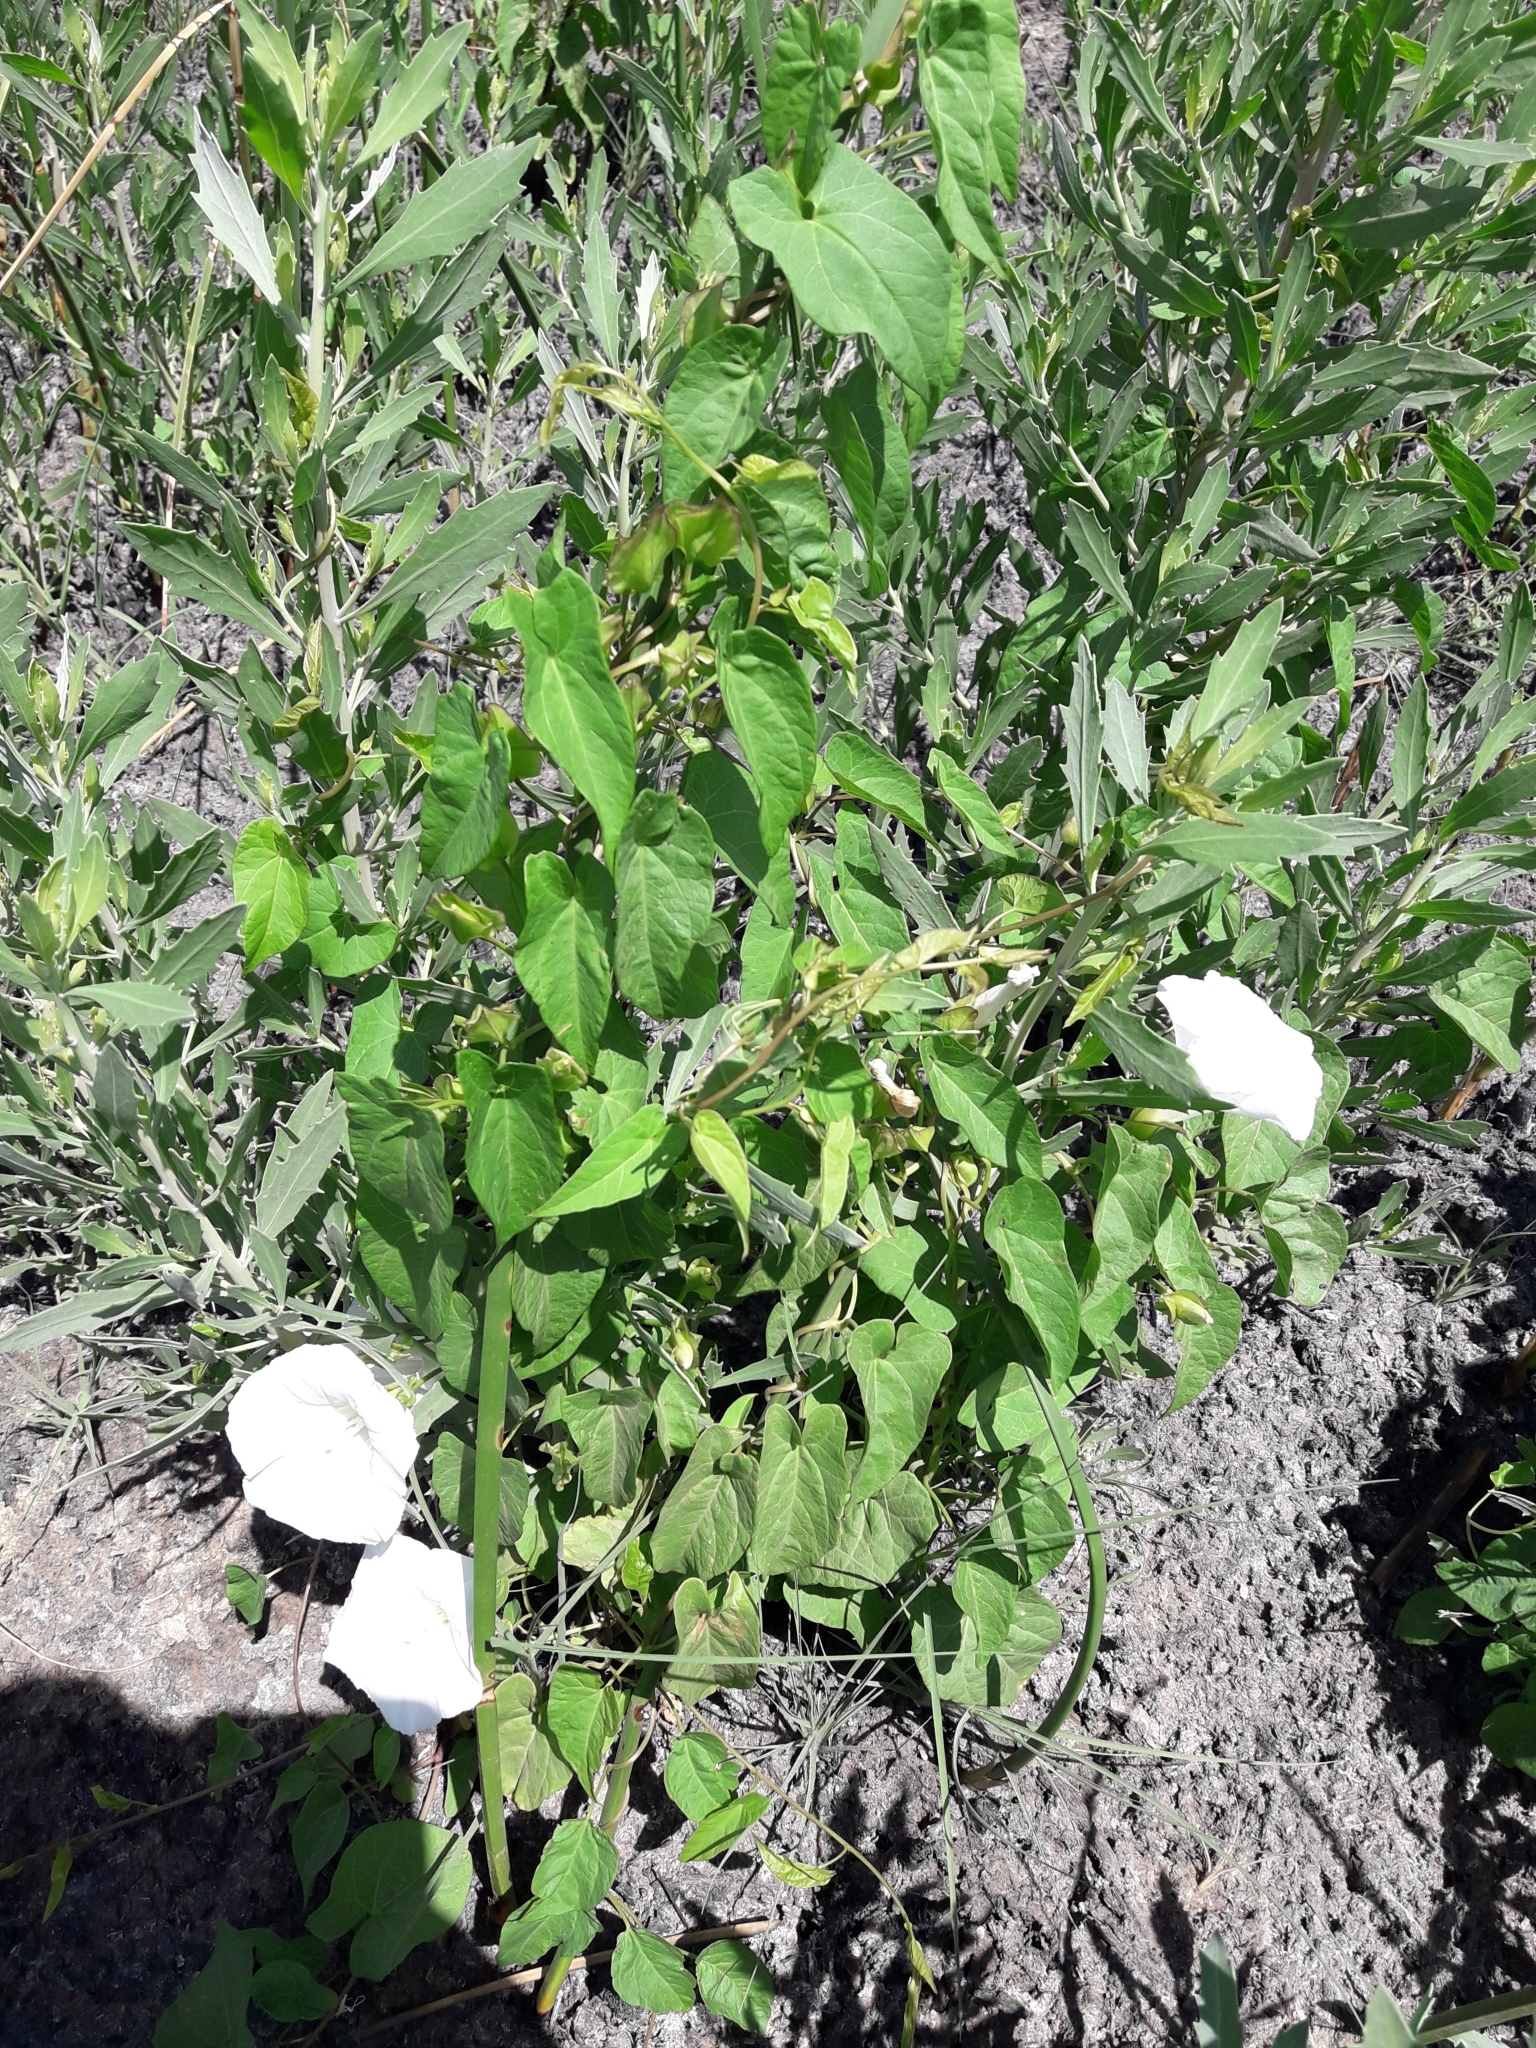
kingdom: Plantae
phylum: Tracheophyta
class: Magnoliopsida
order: Solanales
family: Convolvulaceae
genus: Calystegia
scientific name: Calystegia sepium
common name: Hedge bindweed
